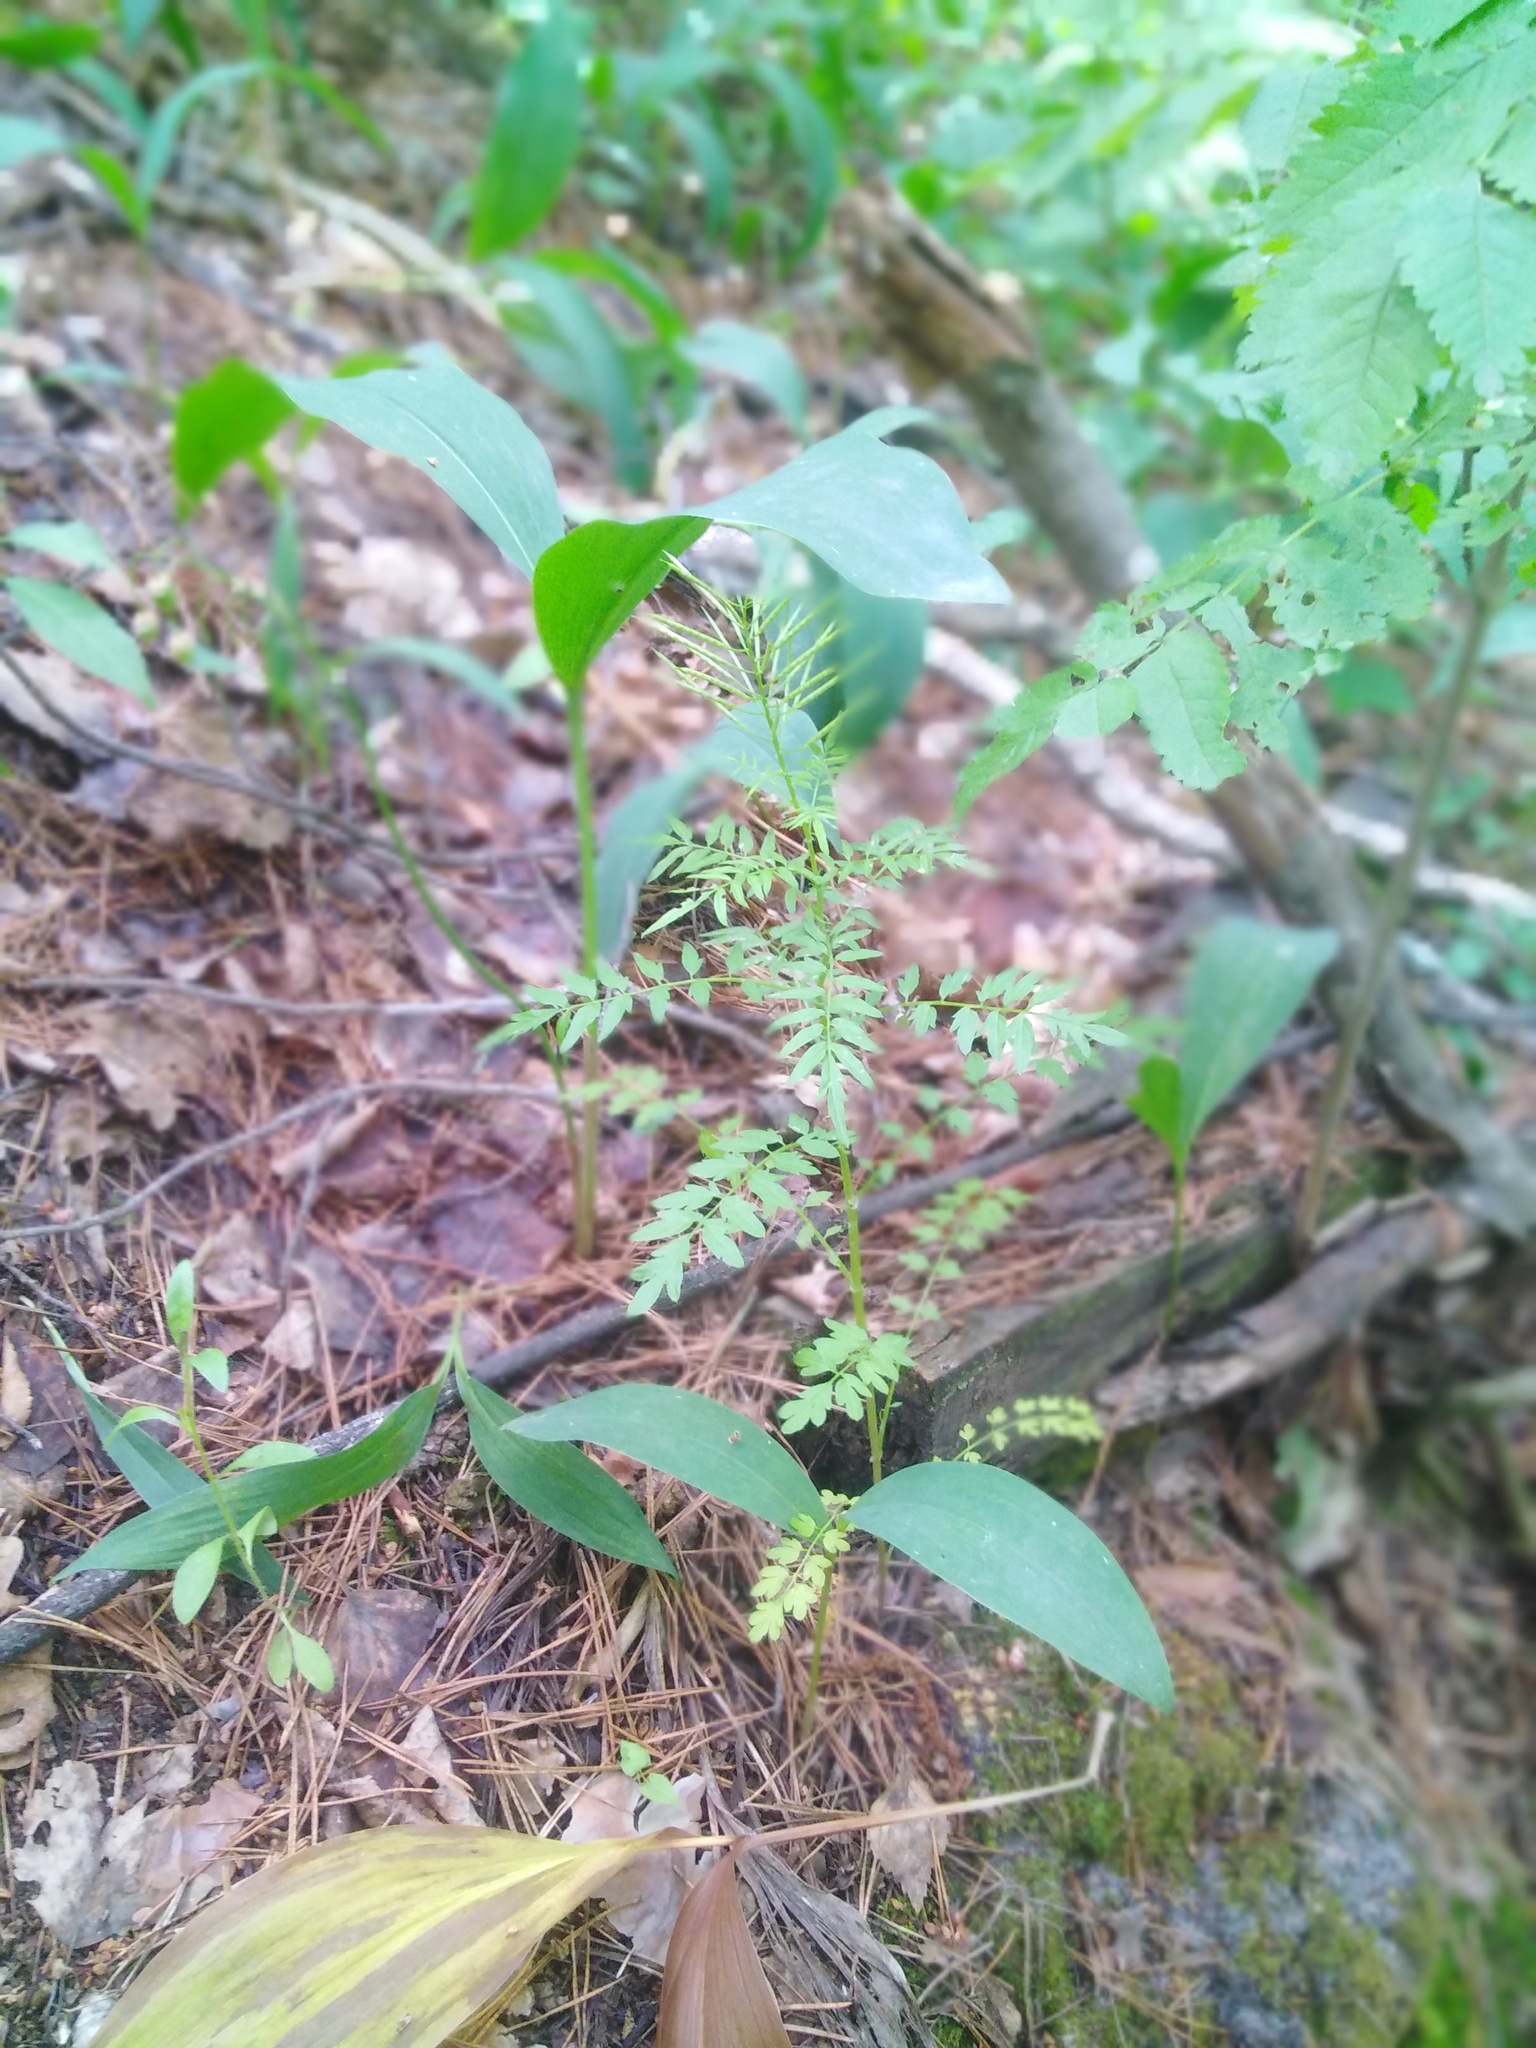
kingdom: Plantae
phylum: Tracheophyta
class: Magnoliopsida
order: Brassicales
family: Brassicaceae
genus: Cardamine
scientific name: Cardamine impatiens
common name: Narrow-leaved bitter-cress
